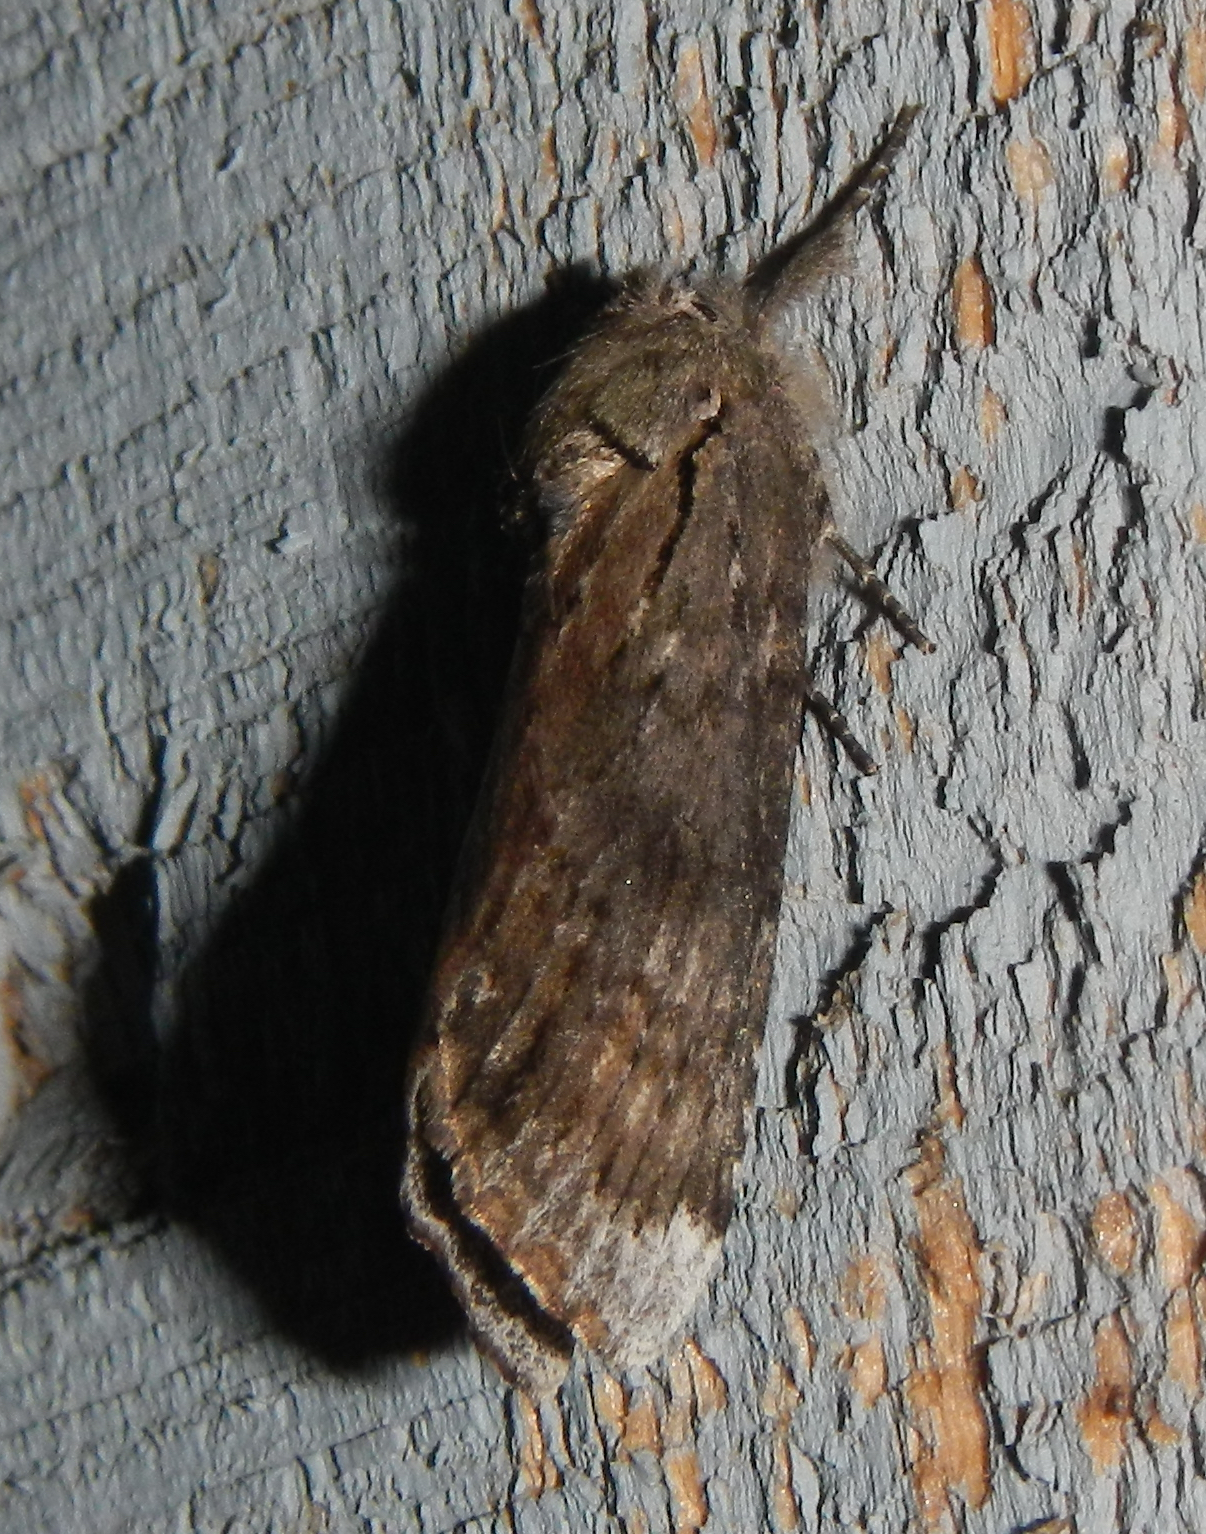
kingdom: Animalia
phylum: Arthropoda
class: Insecta
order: Lepidoptera
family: Notodontidae
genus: Schizura
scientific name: Schizura
